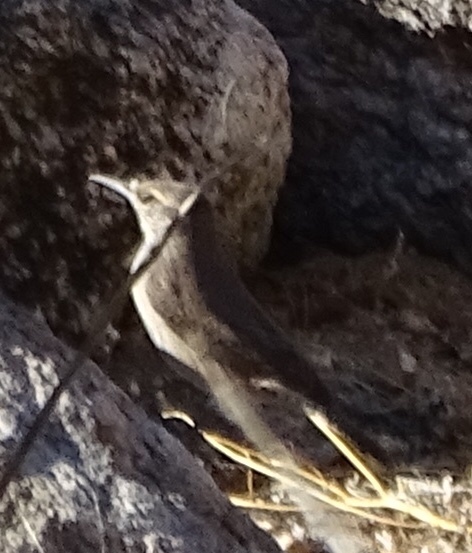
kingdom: Animalia
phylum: Chordata
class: Aves
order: Passeriformes
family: Troglodytidae
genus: Salpinctes
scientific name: Salpinctes obsoletus
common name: Rock wren
